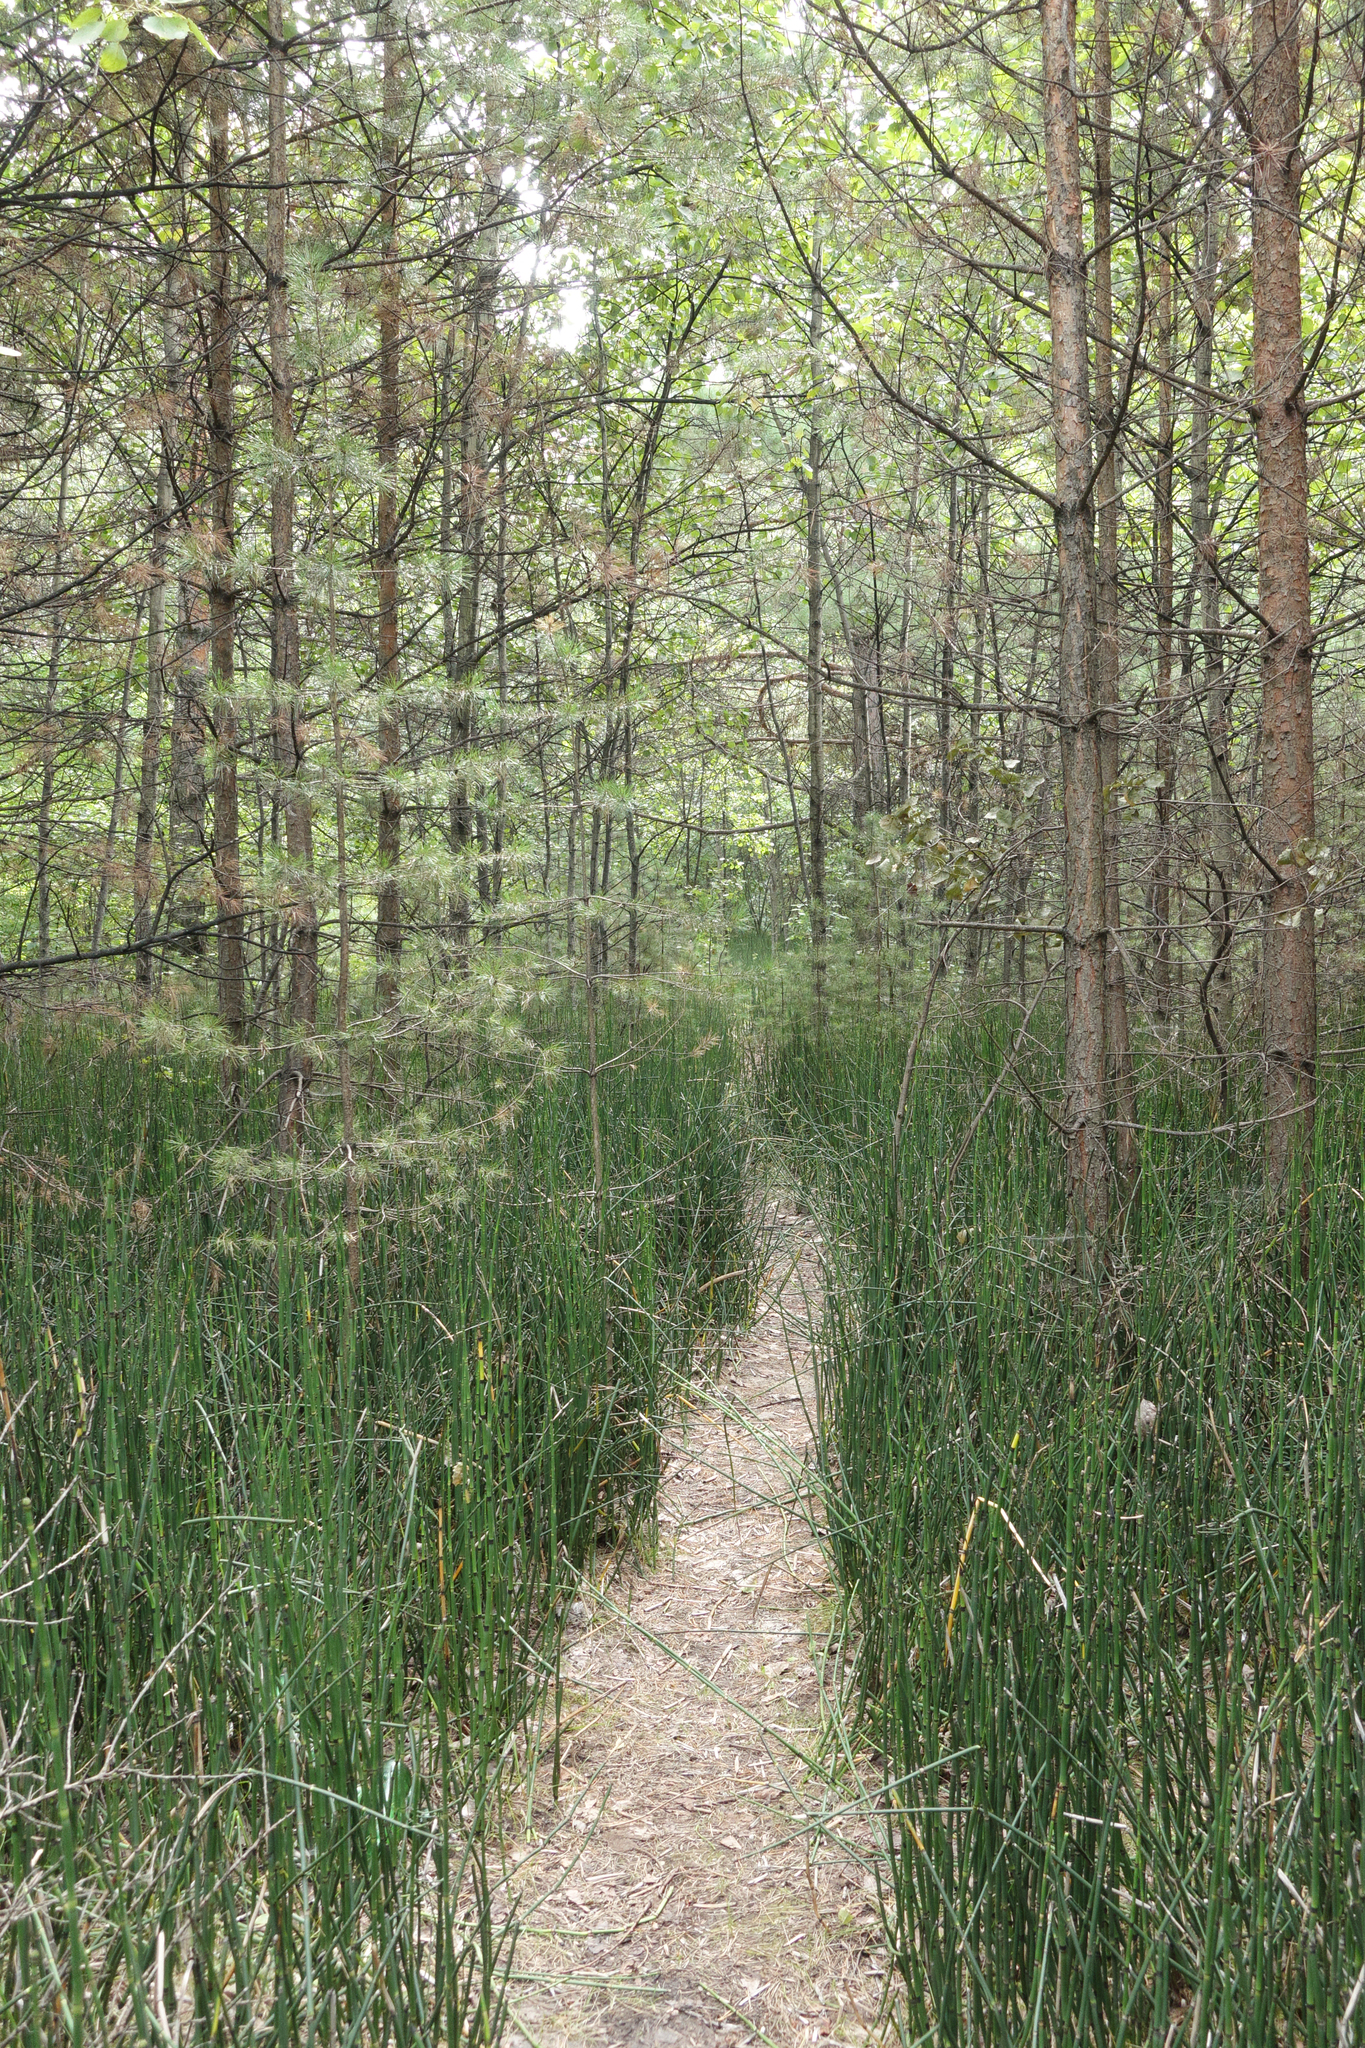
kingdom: Plantae
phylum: Tracheophyta
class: Polypodiopsida
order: Equisetales
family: Equisetaceae
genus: Equisetum
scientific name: Equisetum hyemale
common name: Rough horsetail
